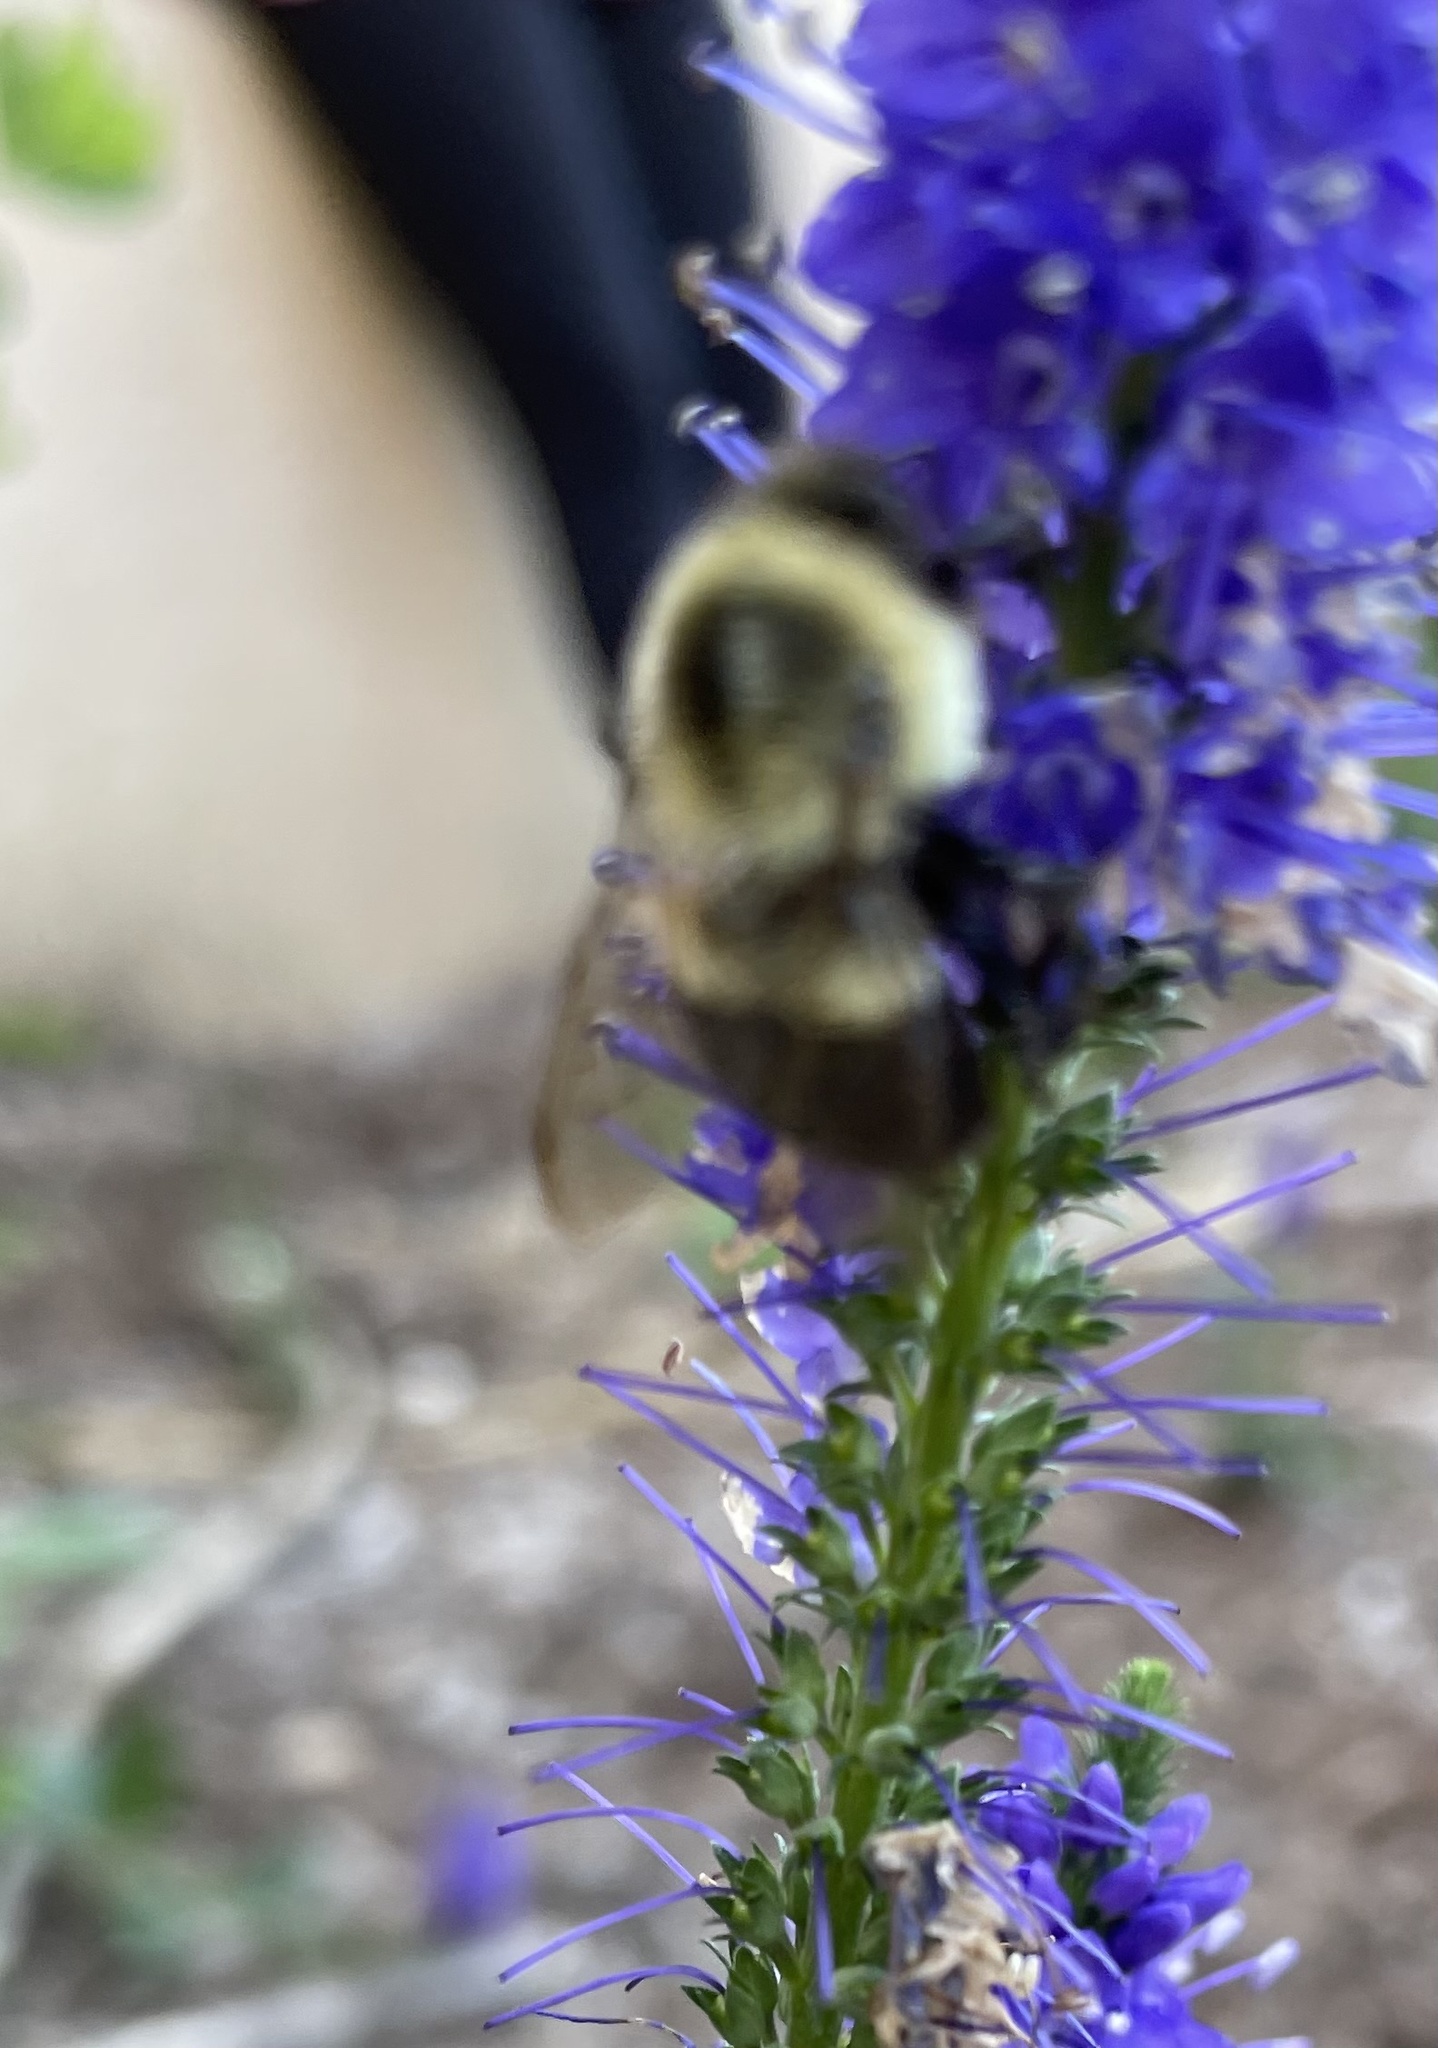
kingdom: Animalia
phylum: Arthropoda
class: Insecta
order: Hymenoptera
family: Apidae
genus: Bombus
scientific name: Bombus impatiens
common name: Common eastern bumble bee
